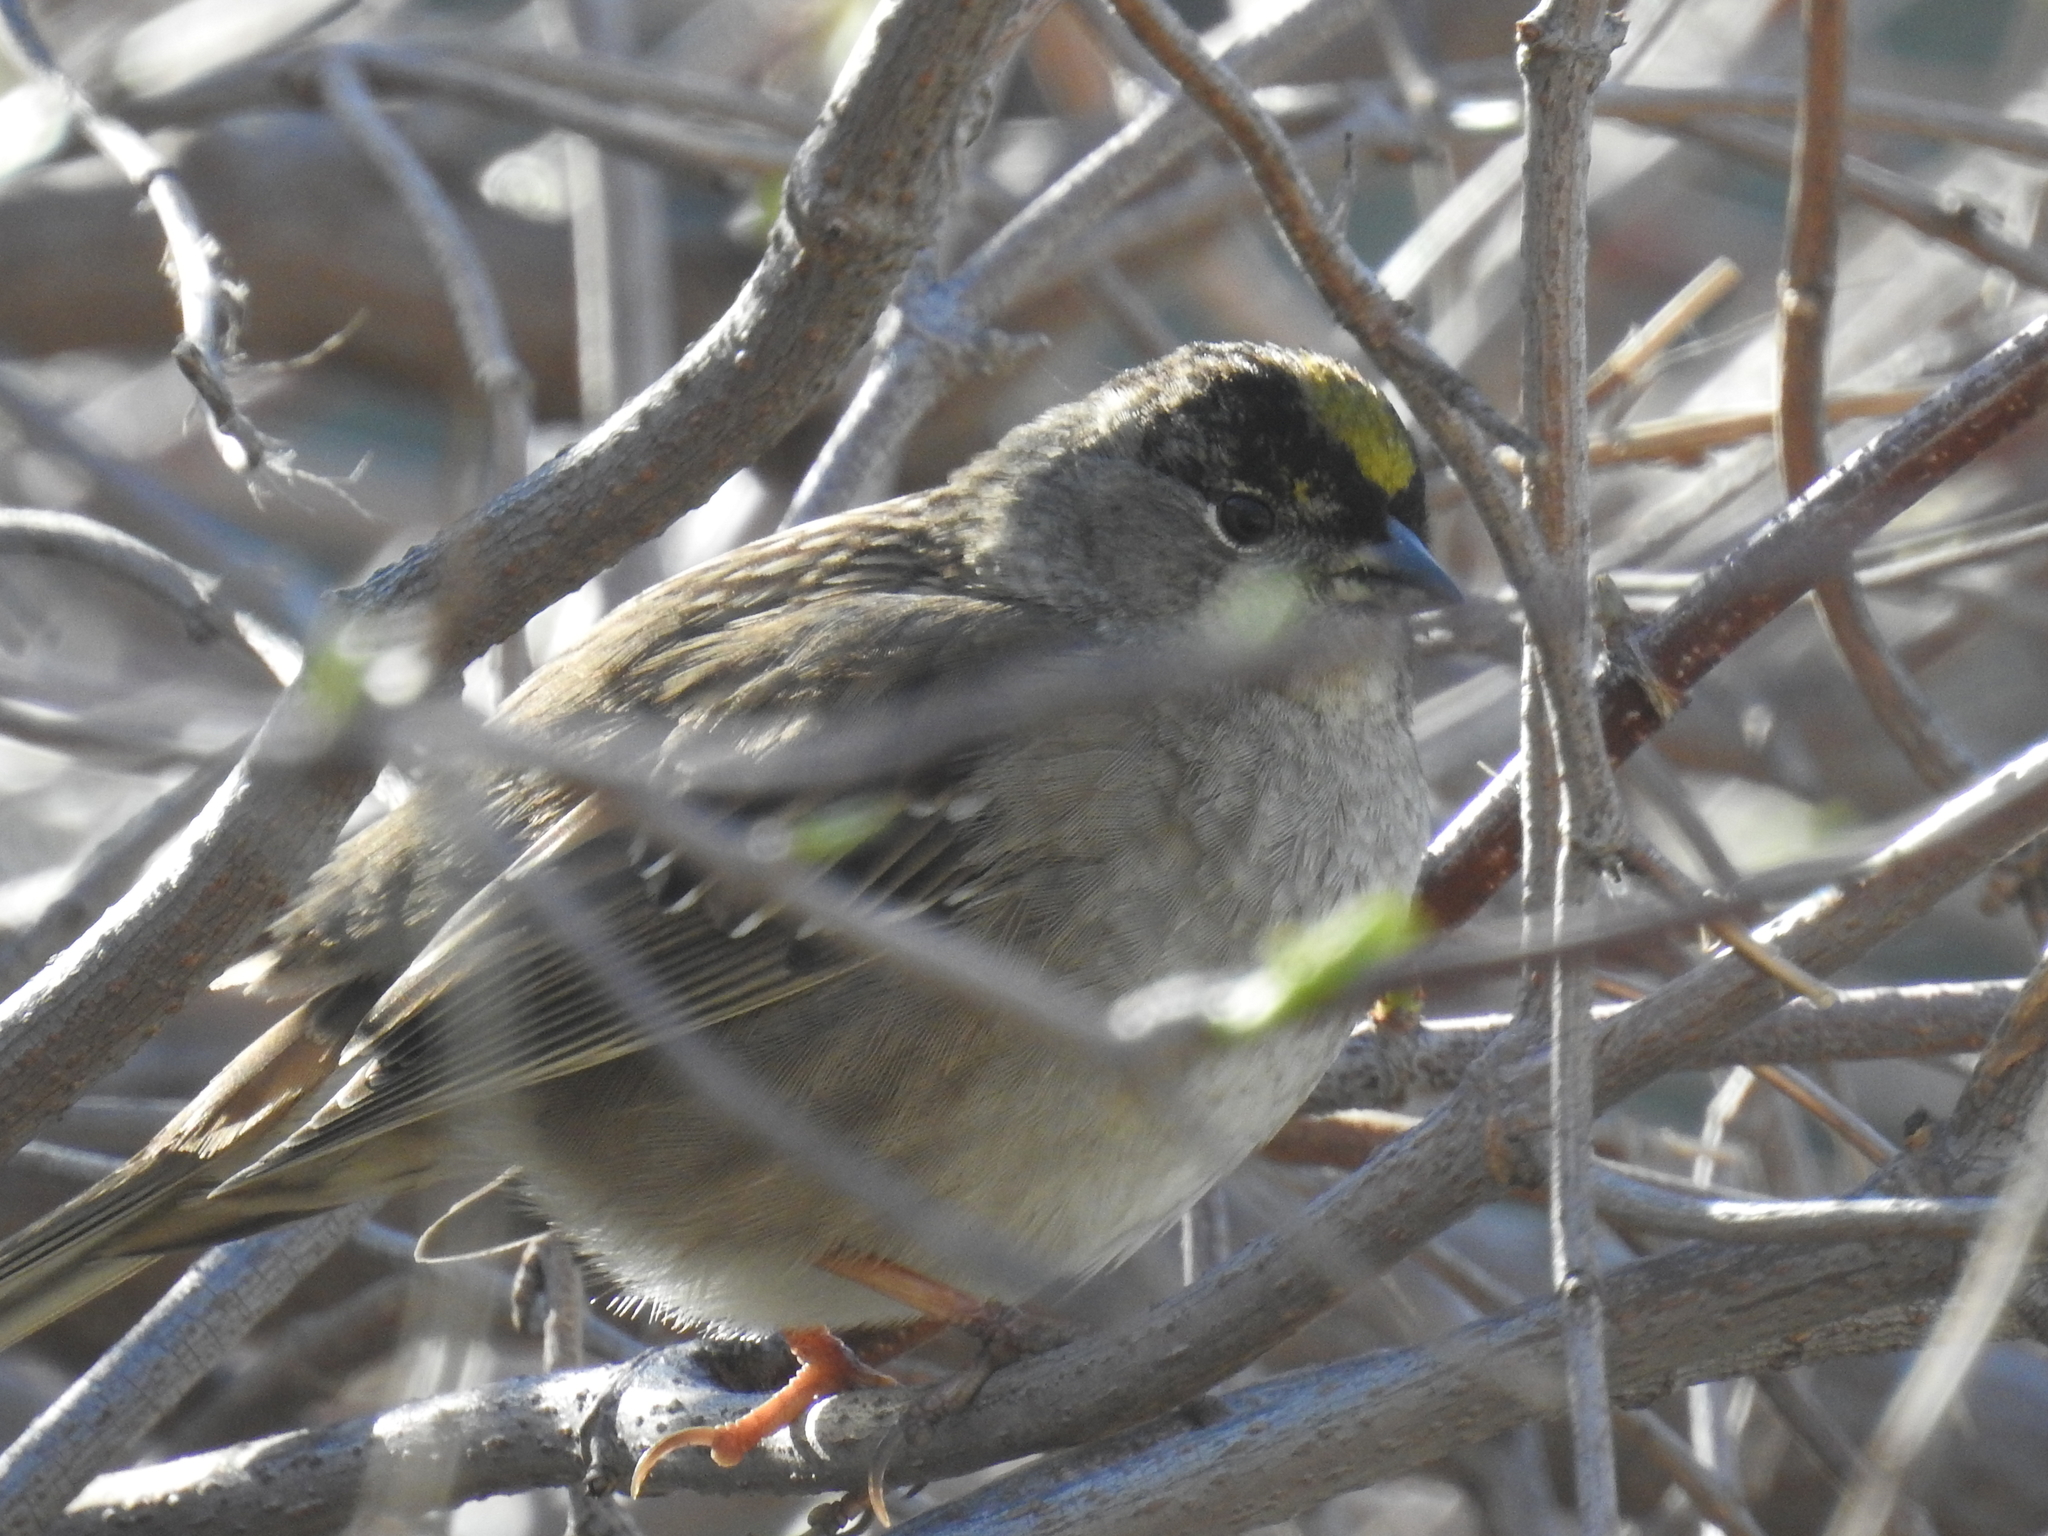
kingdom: Animalia
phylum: Chordata
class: Aves
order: Passeriformes
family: Passerellidae
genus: Zonotrichia
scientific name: Zonotrichia atricapilla
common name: Golden-crowned sparrow
